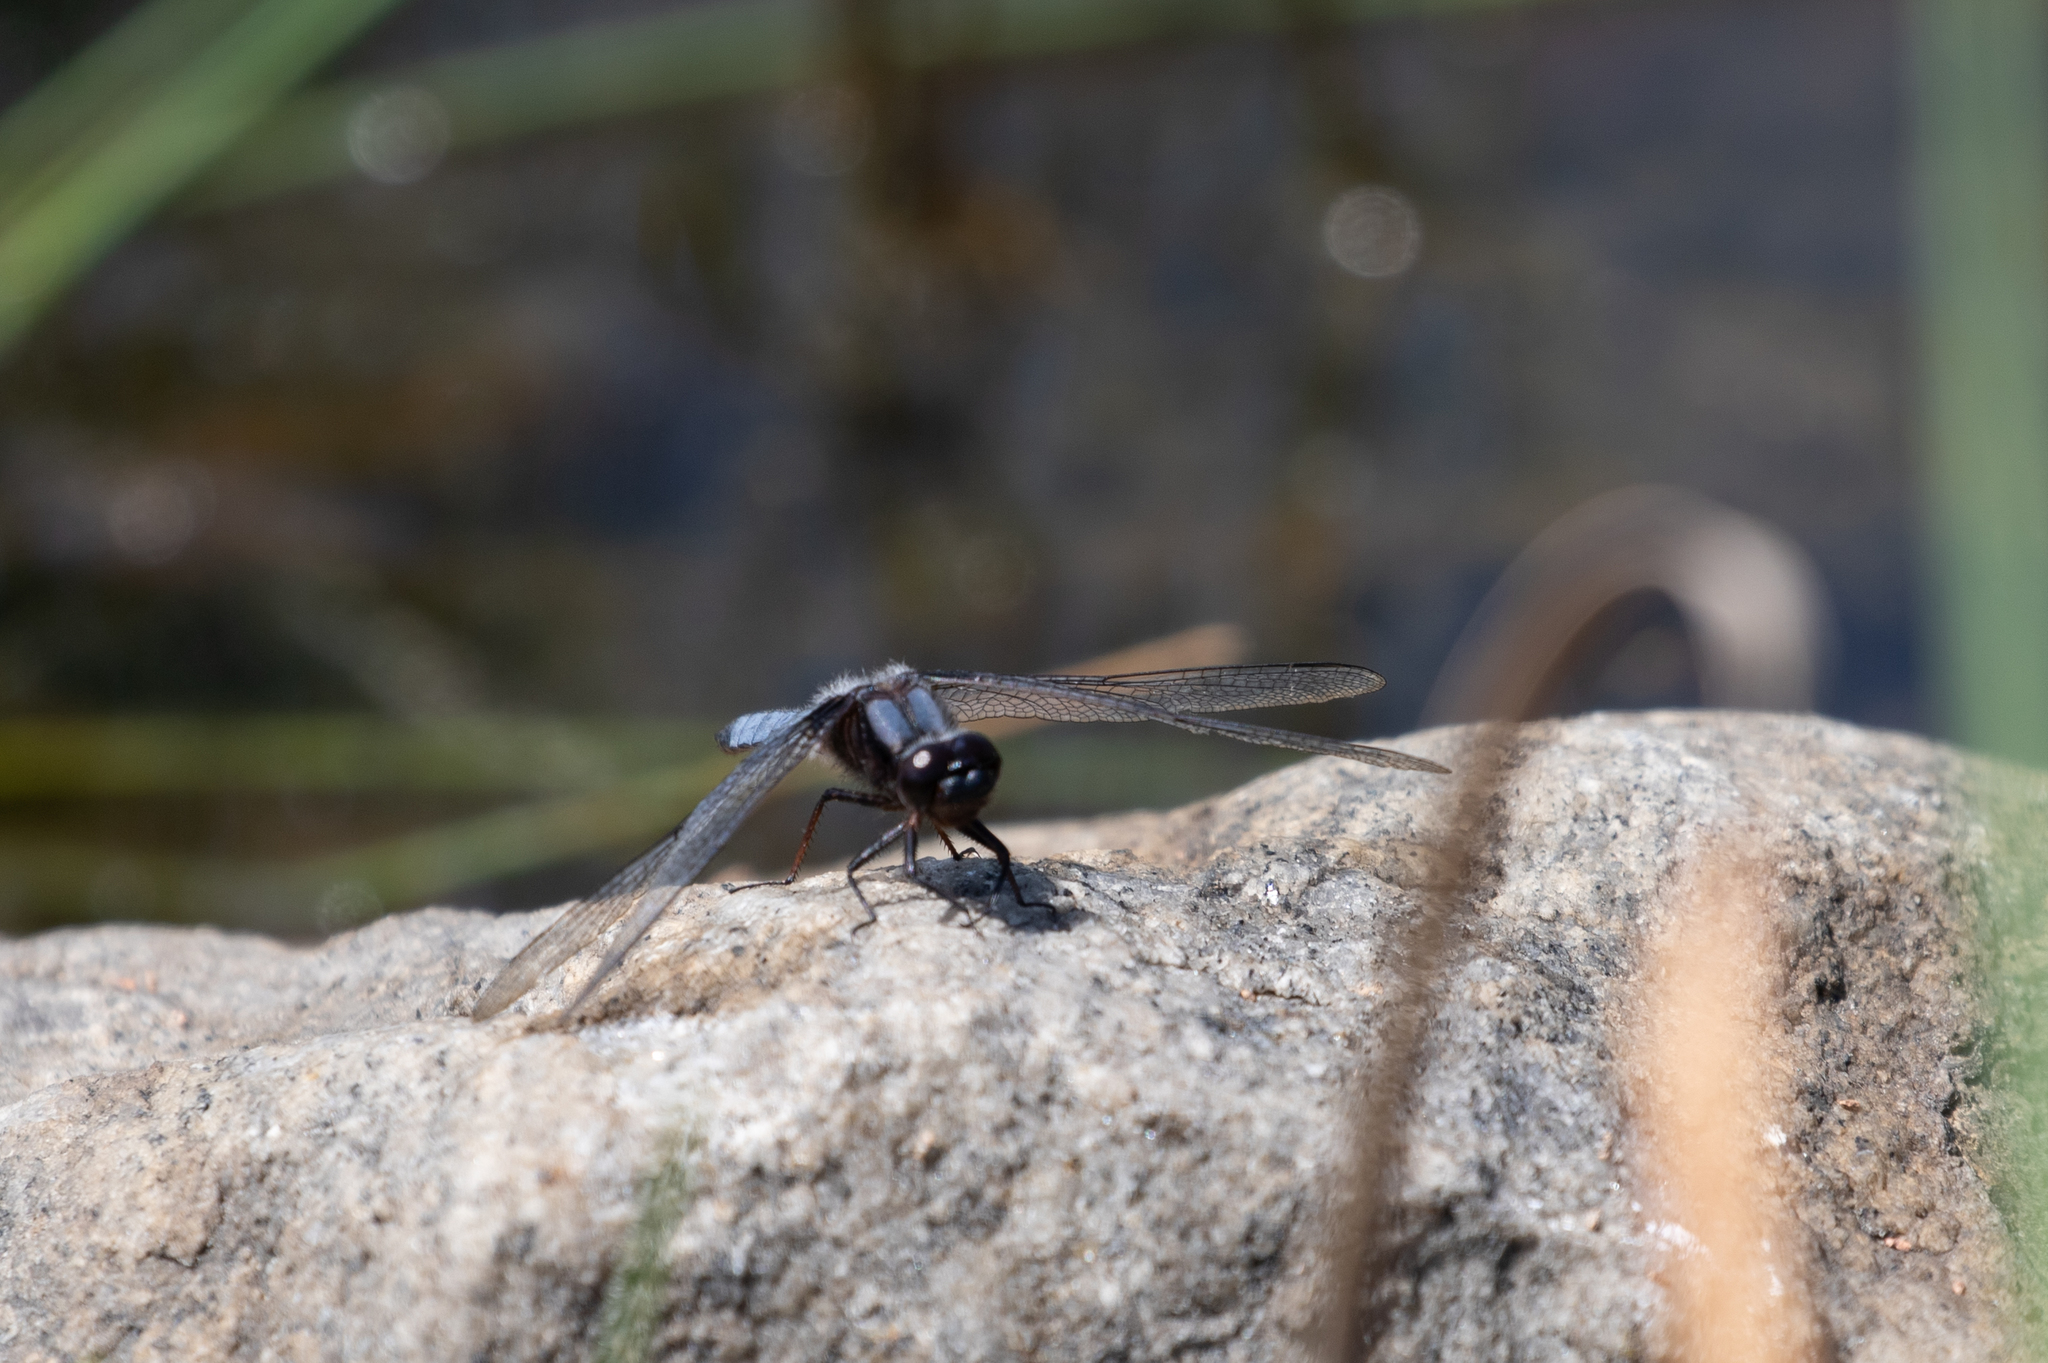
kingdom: Animalia
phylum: Arthropoda
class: Insecta
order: Odonata
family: Libellulidae
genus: Ladona
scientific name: Ladona deplanata
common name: Blue corporal
